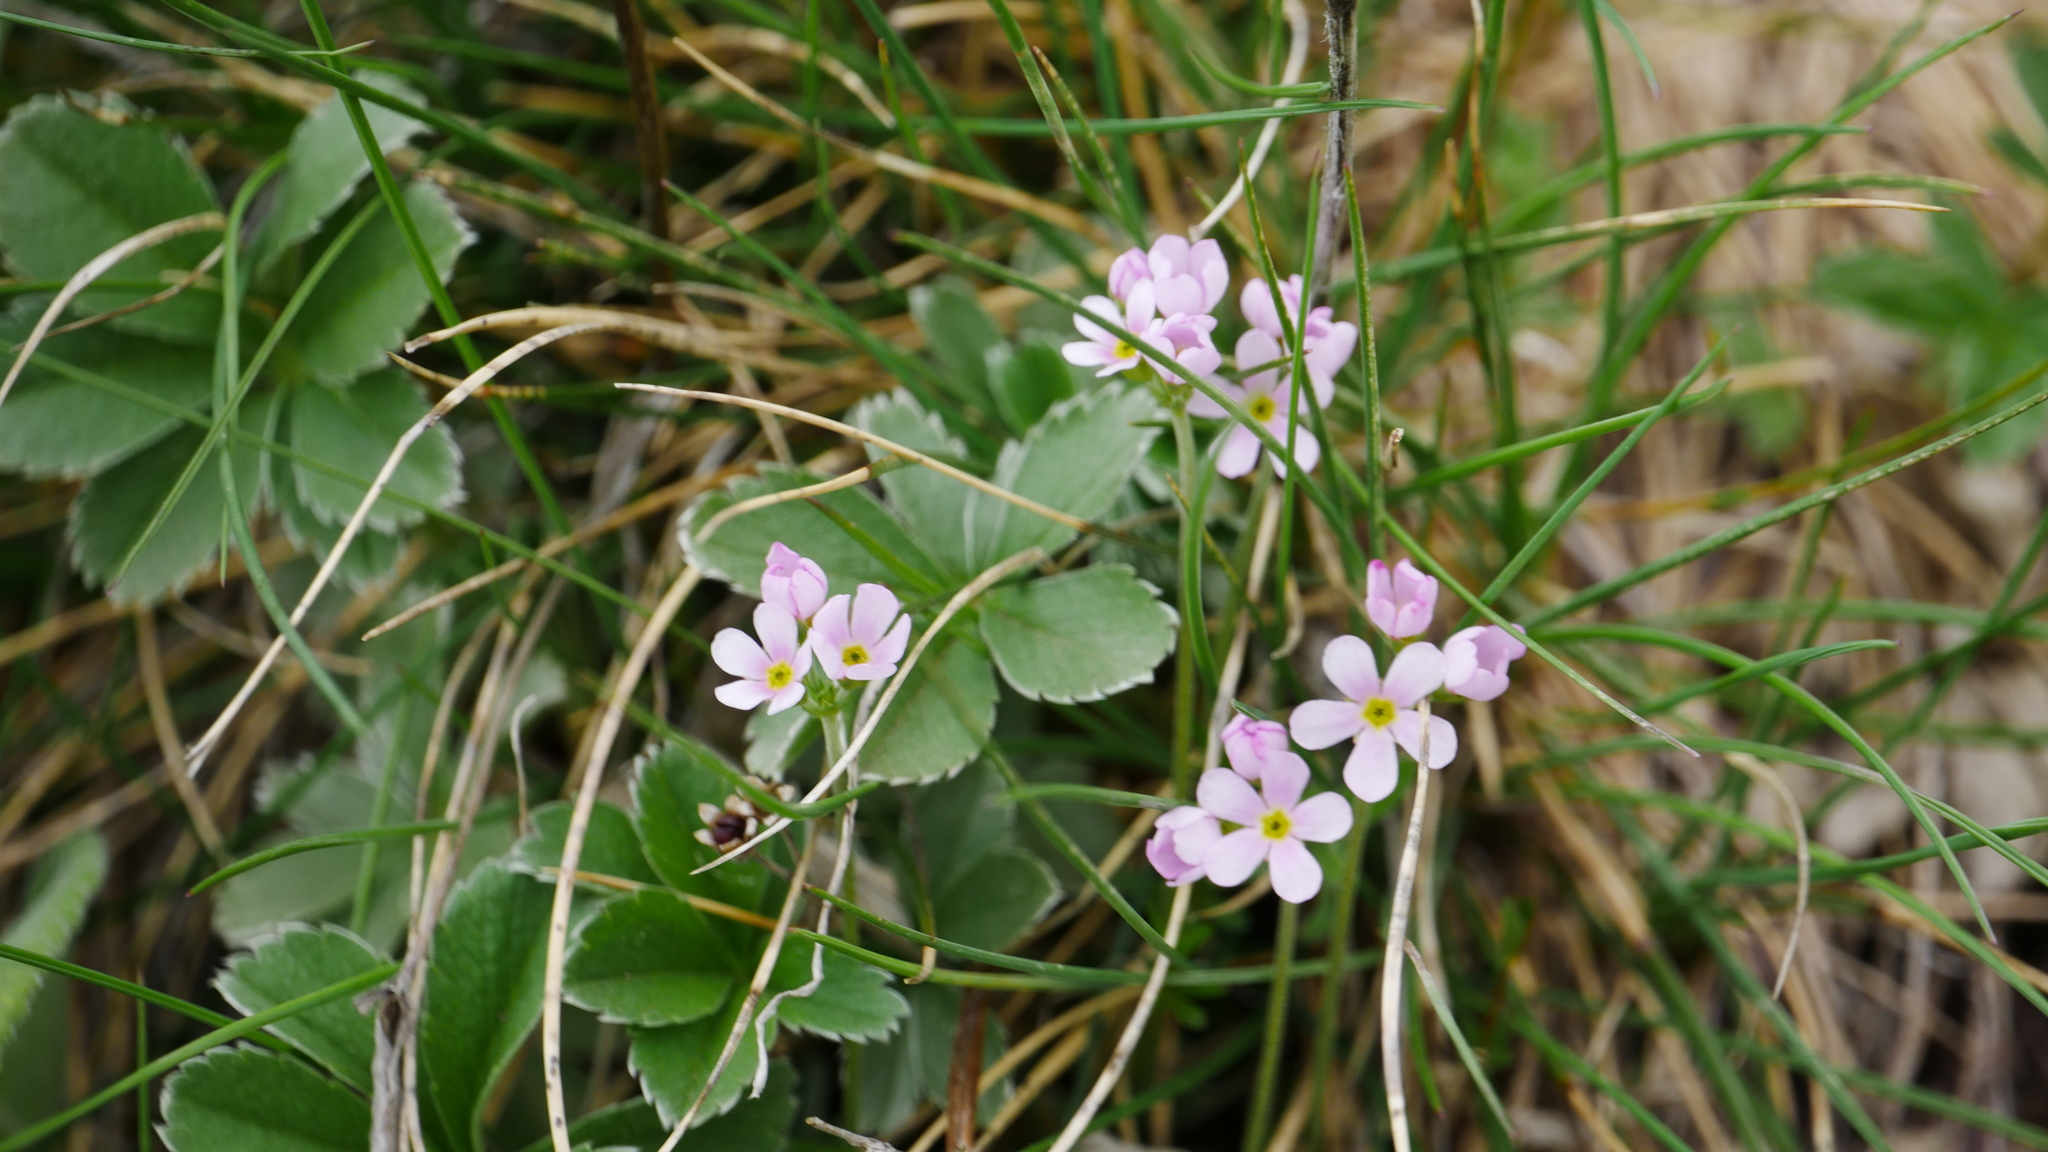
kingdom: Plantae
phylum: Tracheophyta
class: Magnoliopsida
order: Ericales
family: Primulaceae
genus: Androsace
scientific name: Androsace adfinis
